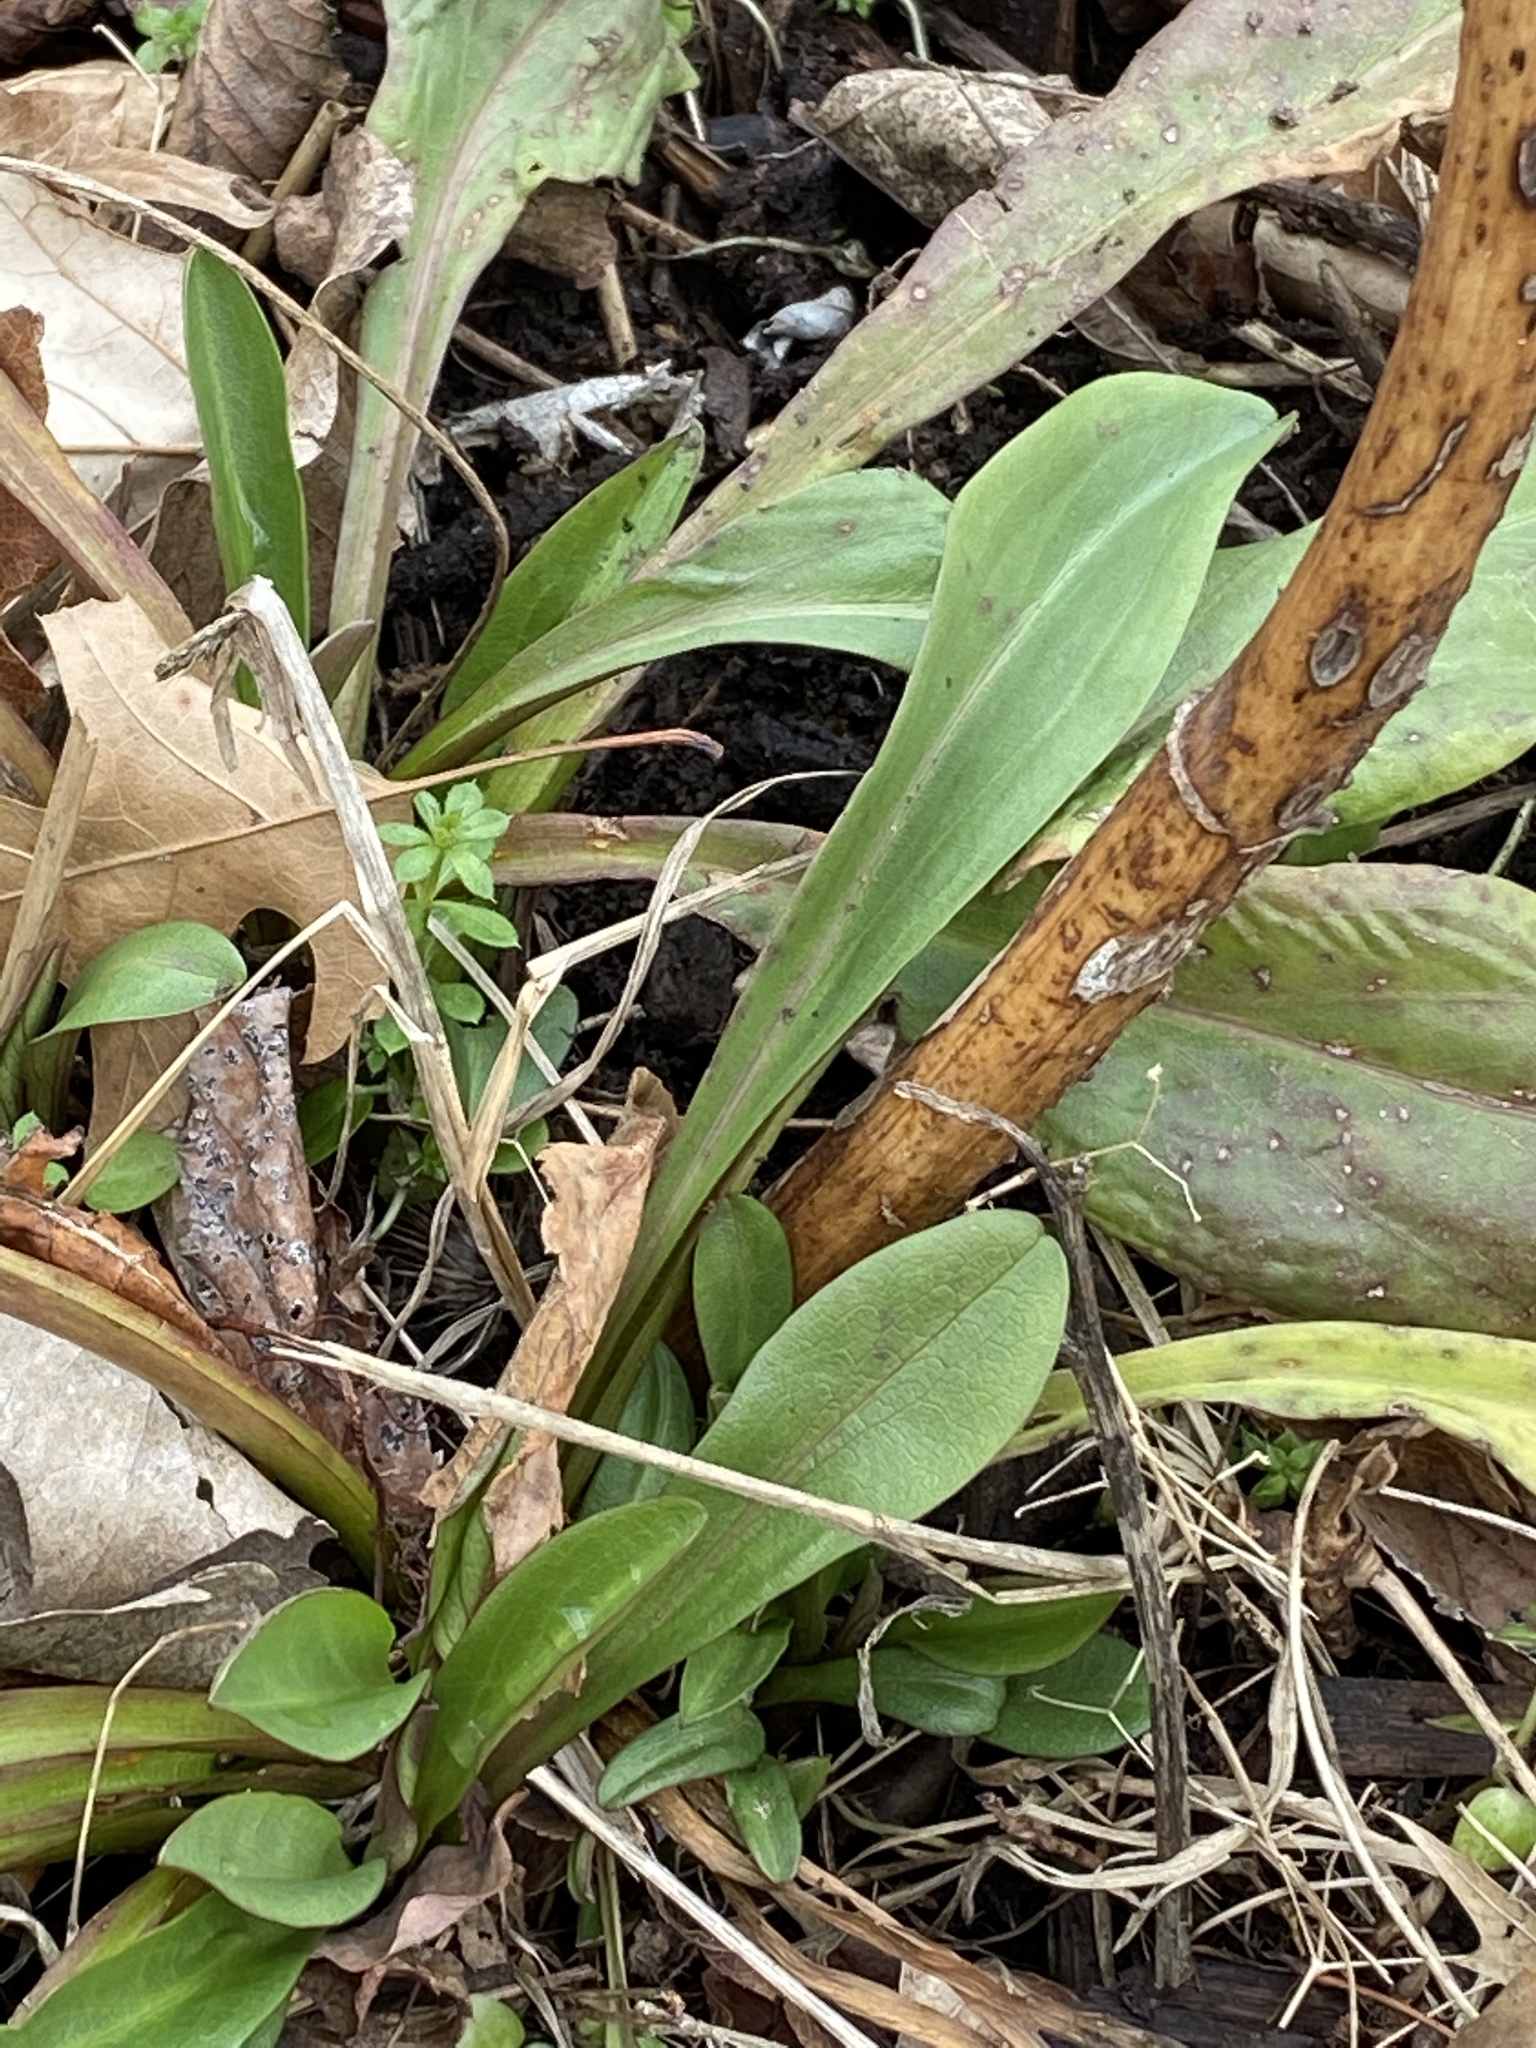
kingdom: Plantae
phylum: Tracheophyta
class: Magnoliopsida
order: Asterales
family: Asteraceae
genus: Solidago
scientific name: Solidago sempervirens
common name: Salt-marsh goldenrod
